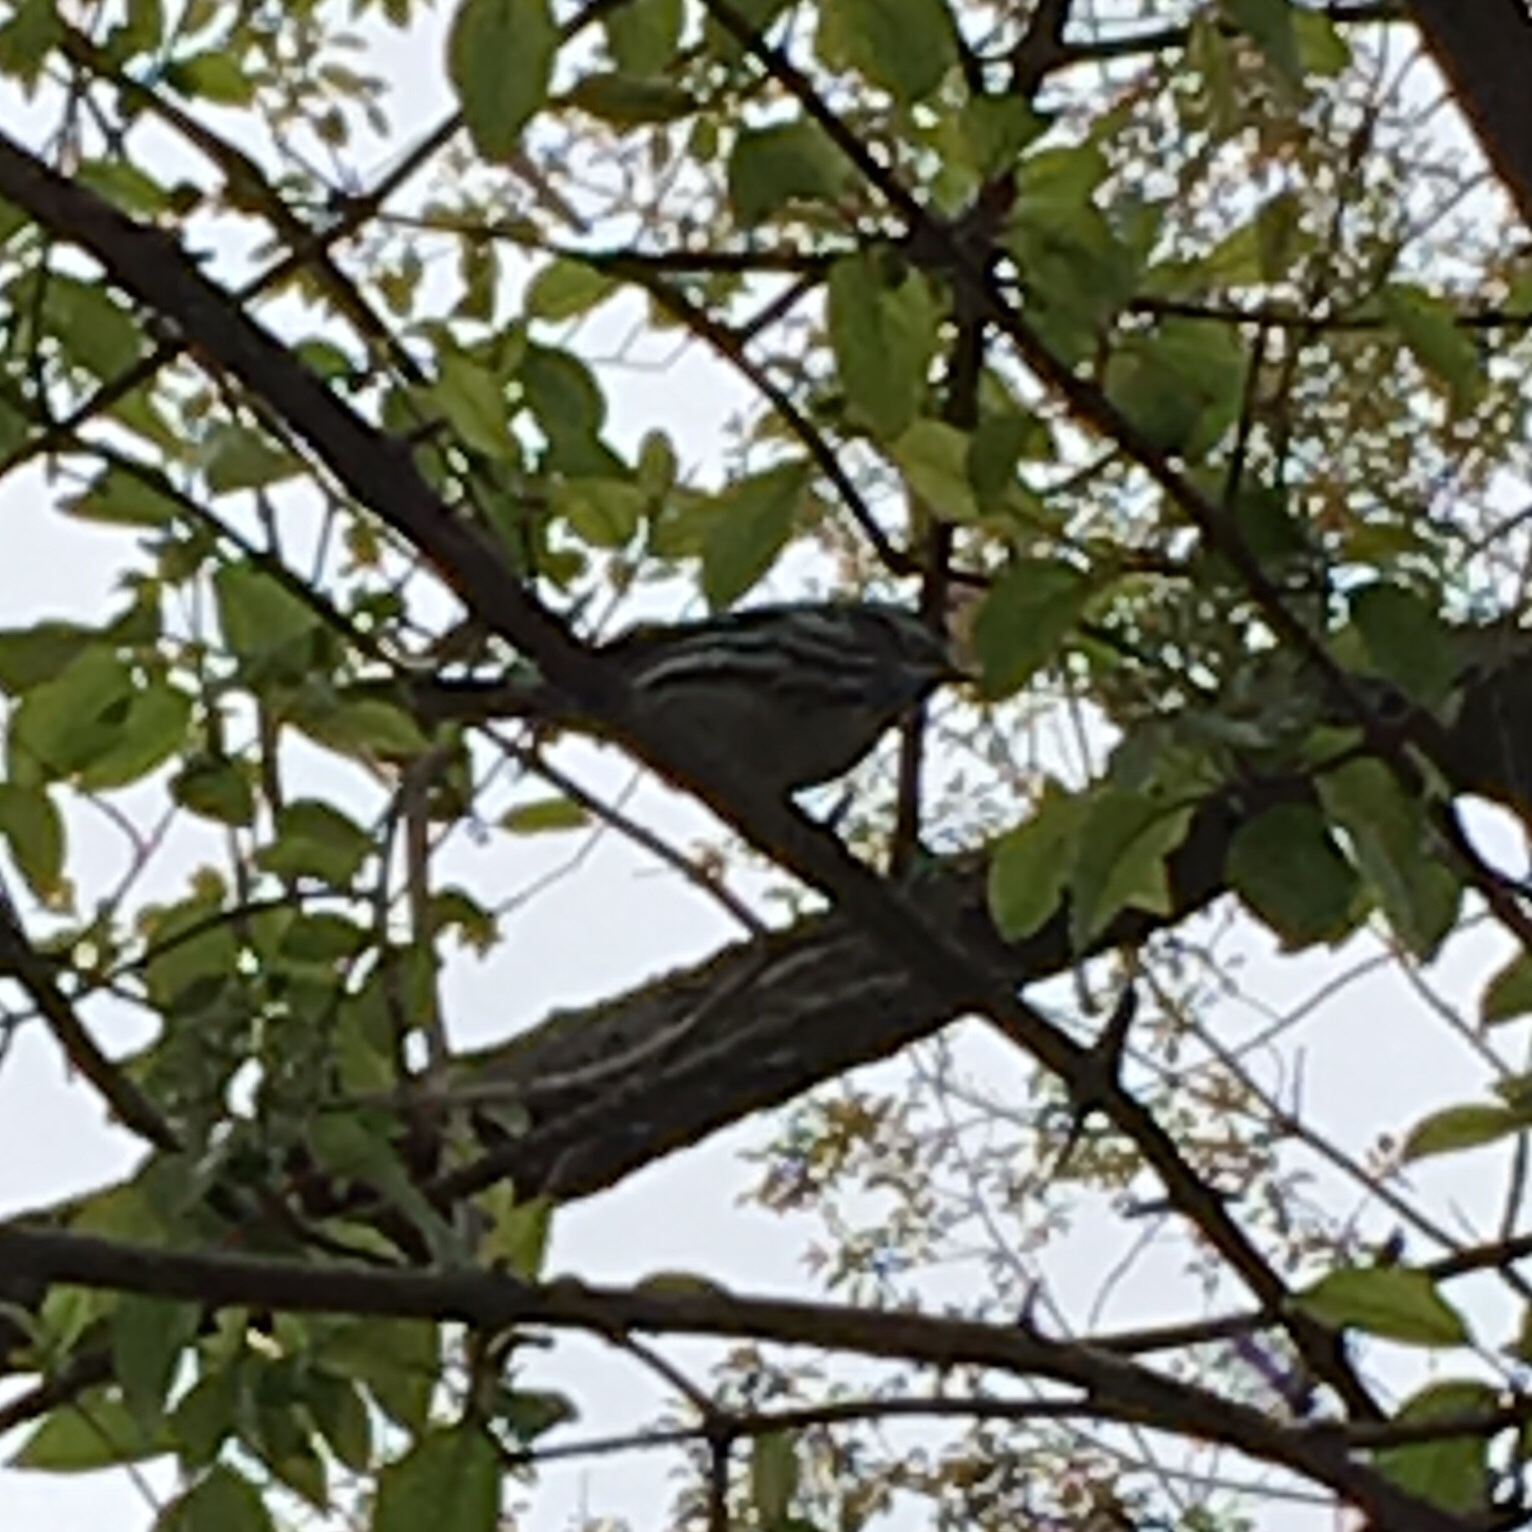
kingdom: Animalia
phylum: Chordata
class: Aves
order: Passeriformes
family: Parulidae
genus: Mniotilta
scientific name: Mniotilta varia
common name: Black-and-white warbler
